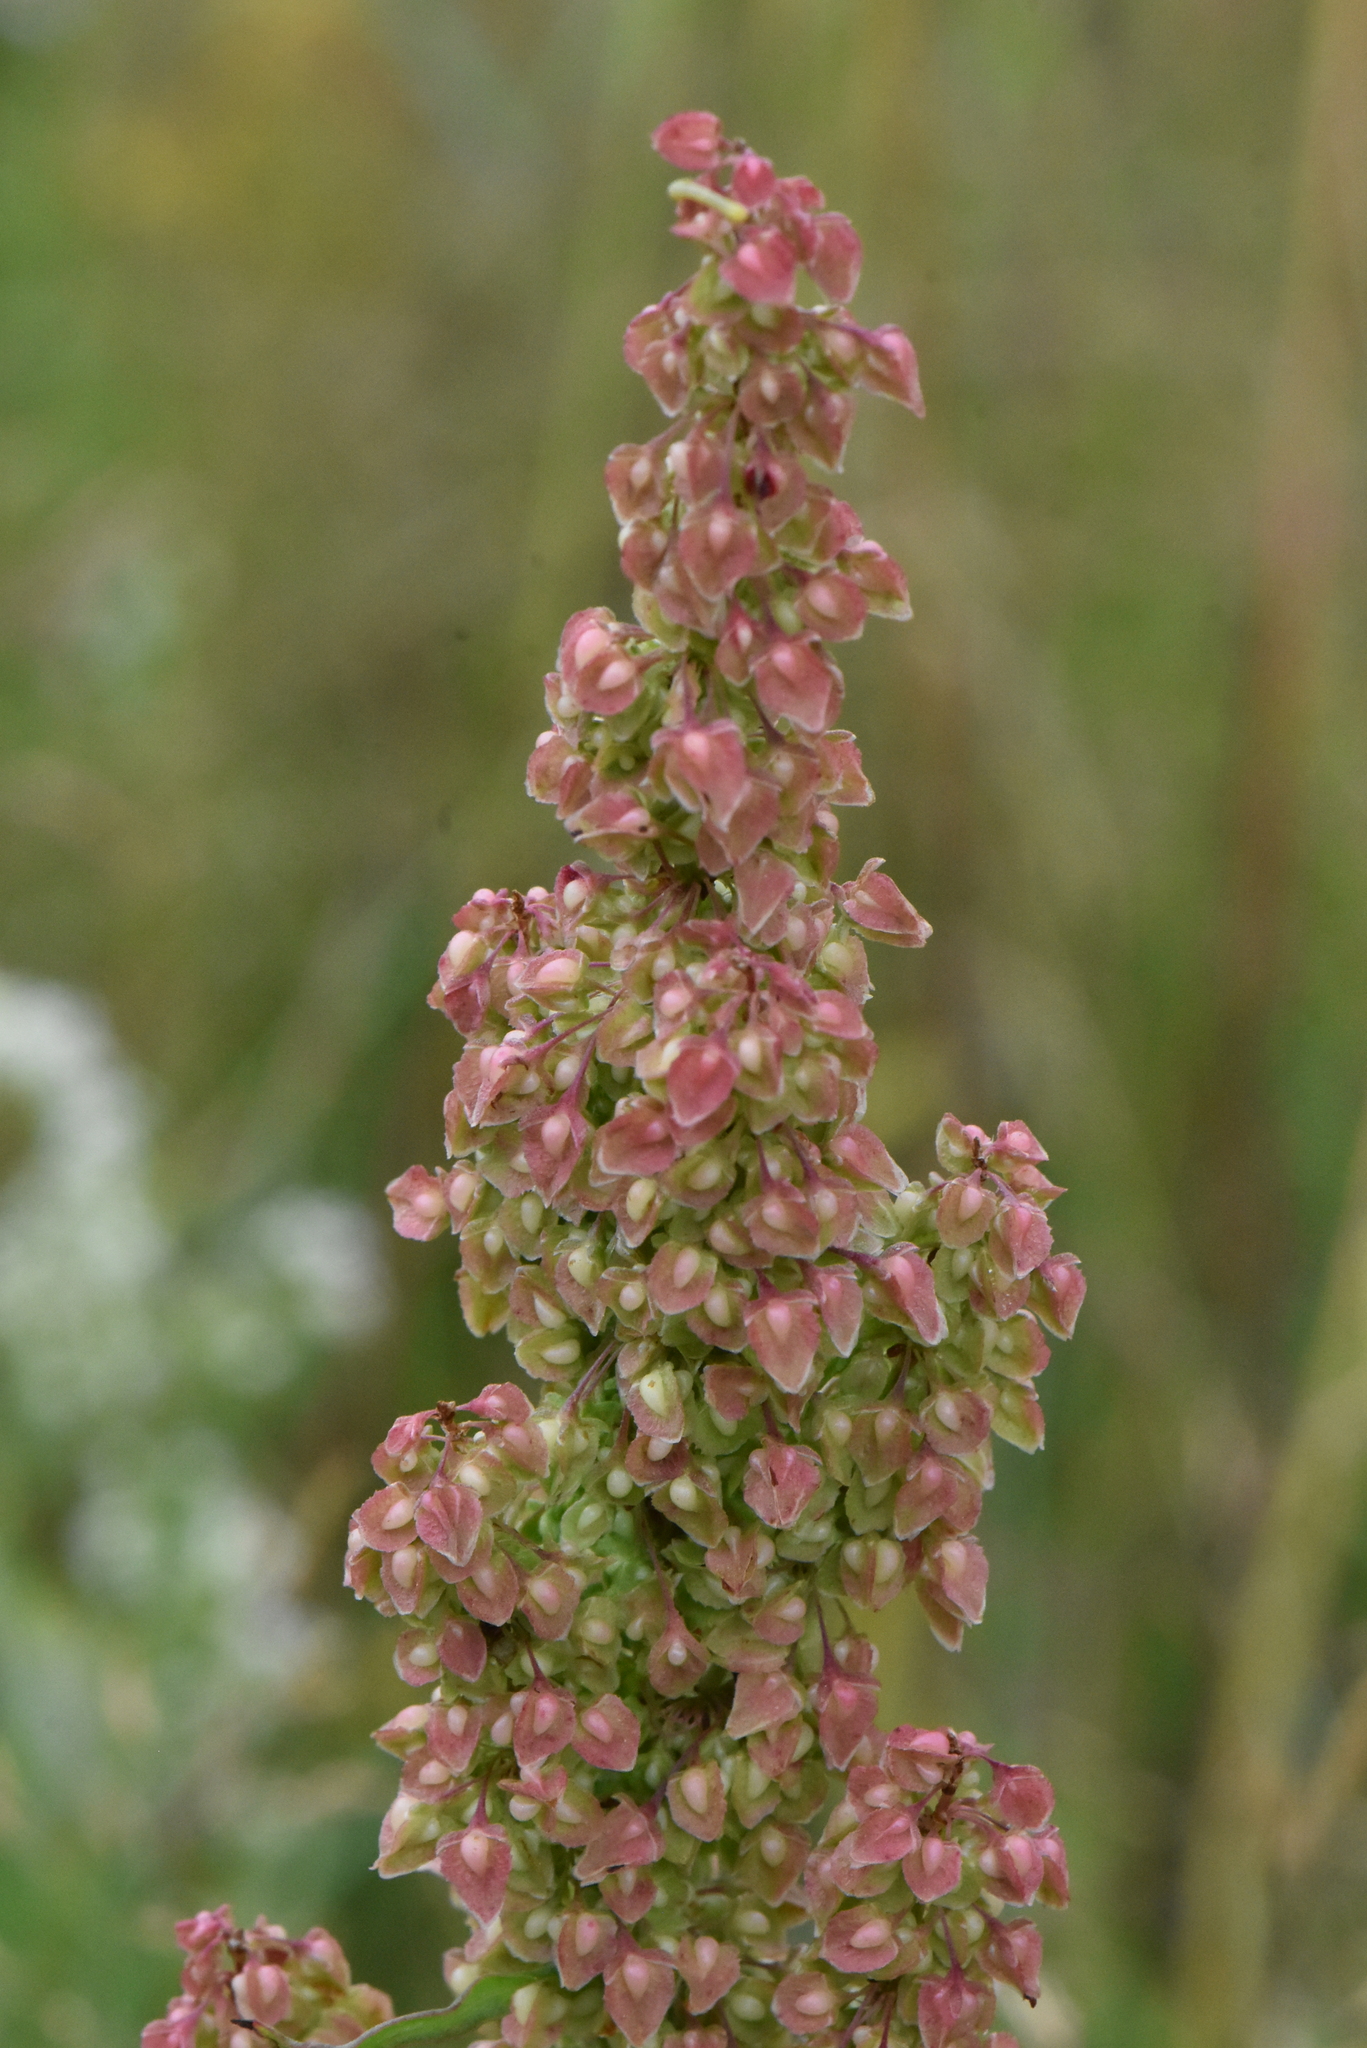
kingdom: Plantae
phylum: Tracheophyta
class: Magnoliopsida
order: Caryophyllales
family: Polygonaceae
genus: Rumex
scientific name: Rumex crispus
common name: Curled dock
